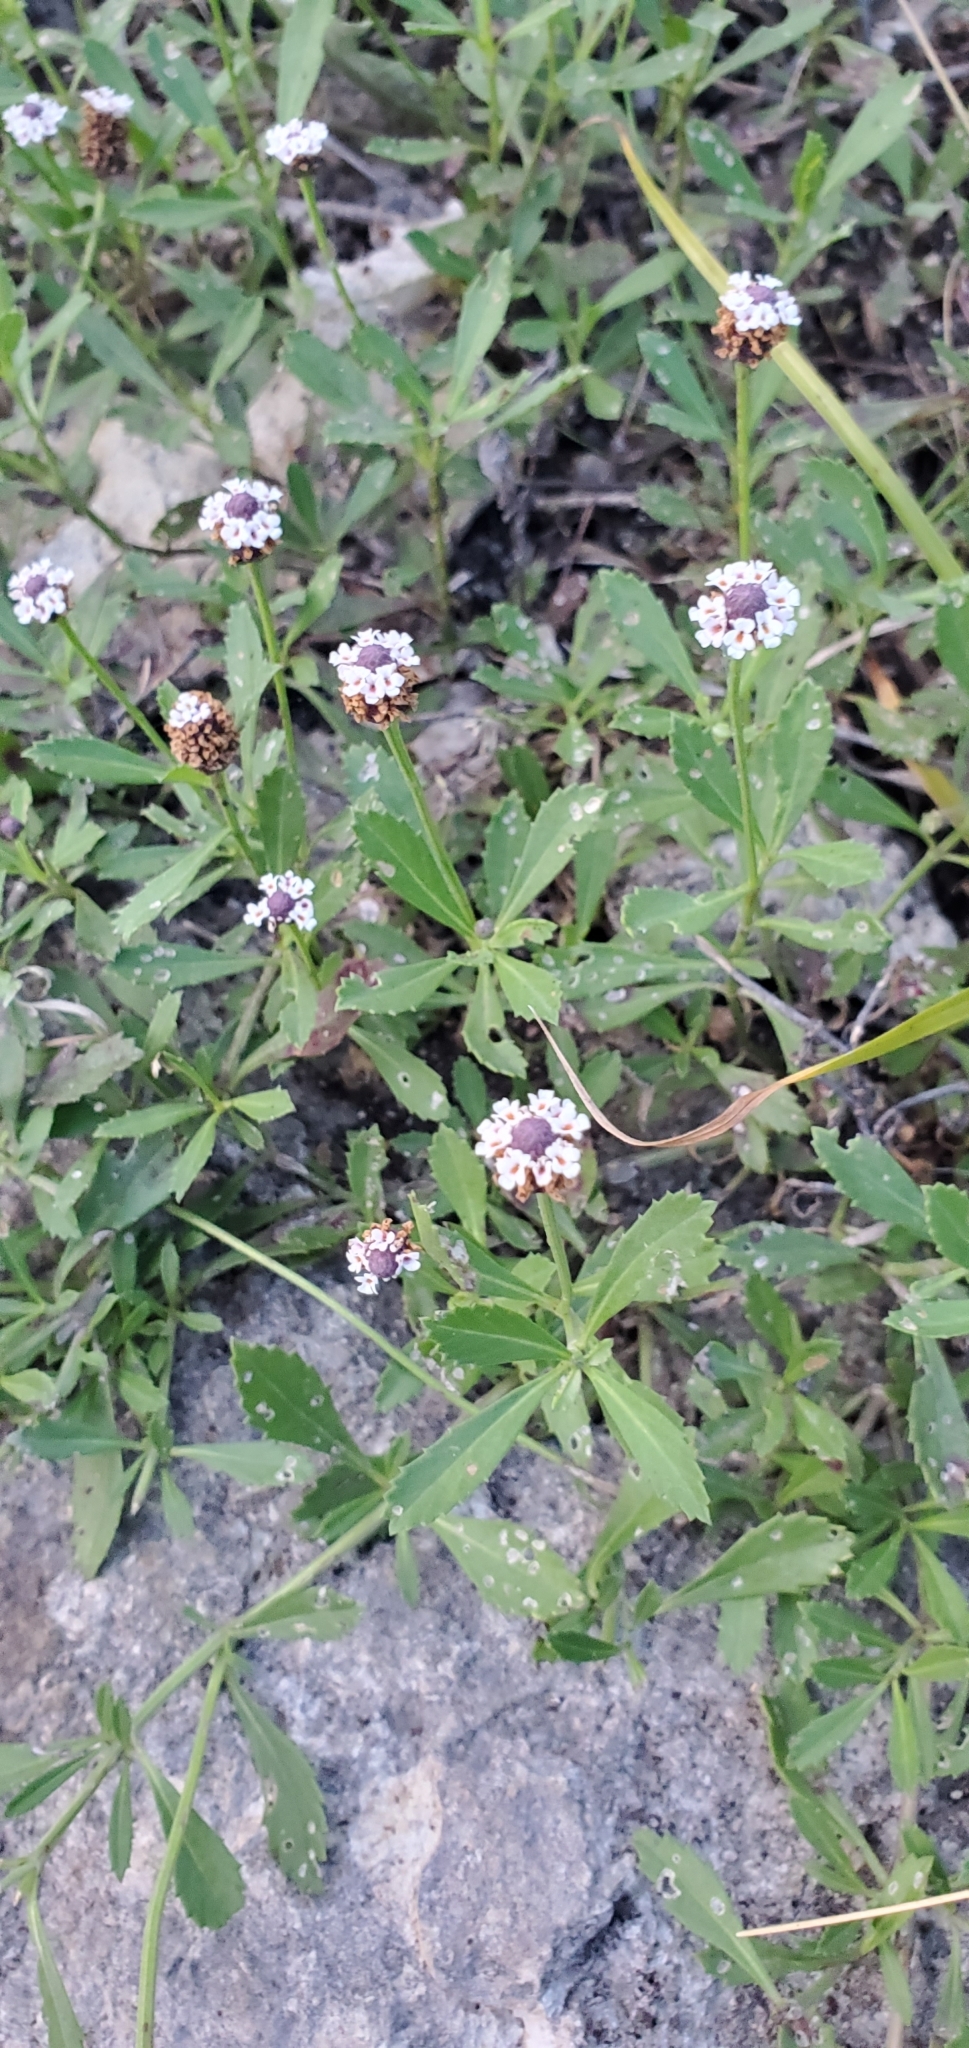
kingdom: Plantae
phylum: Tracheophyta
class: Magnoliopsida
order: Lamiales
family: Verbenaceae
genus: Phyla
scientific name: Phyla nodiflora
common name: Frogfruit
